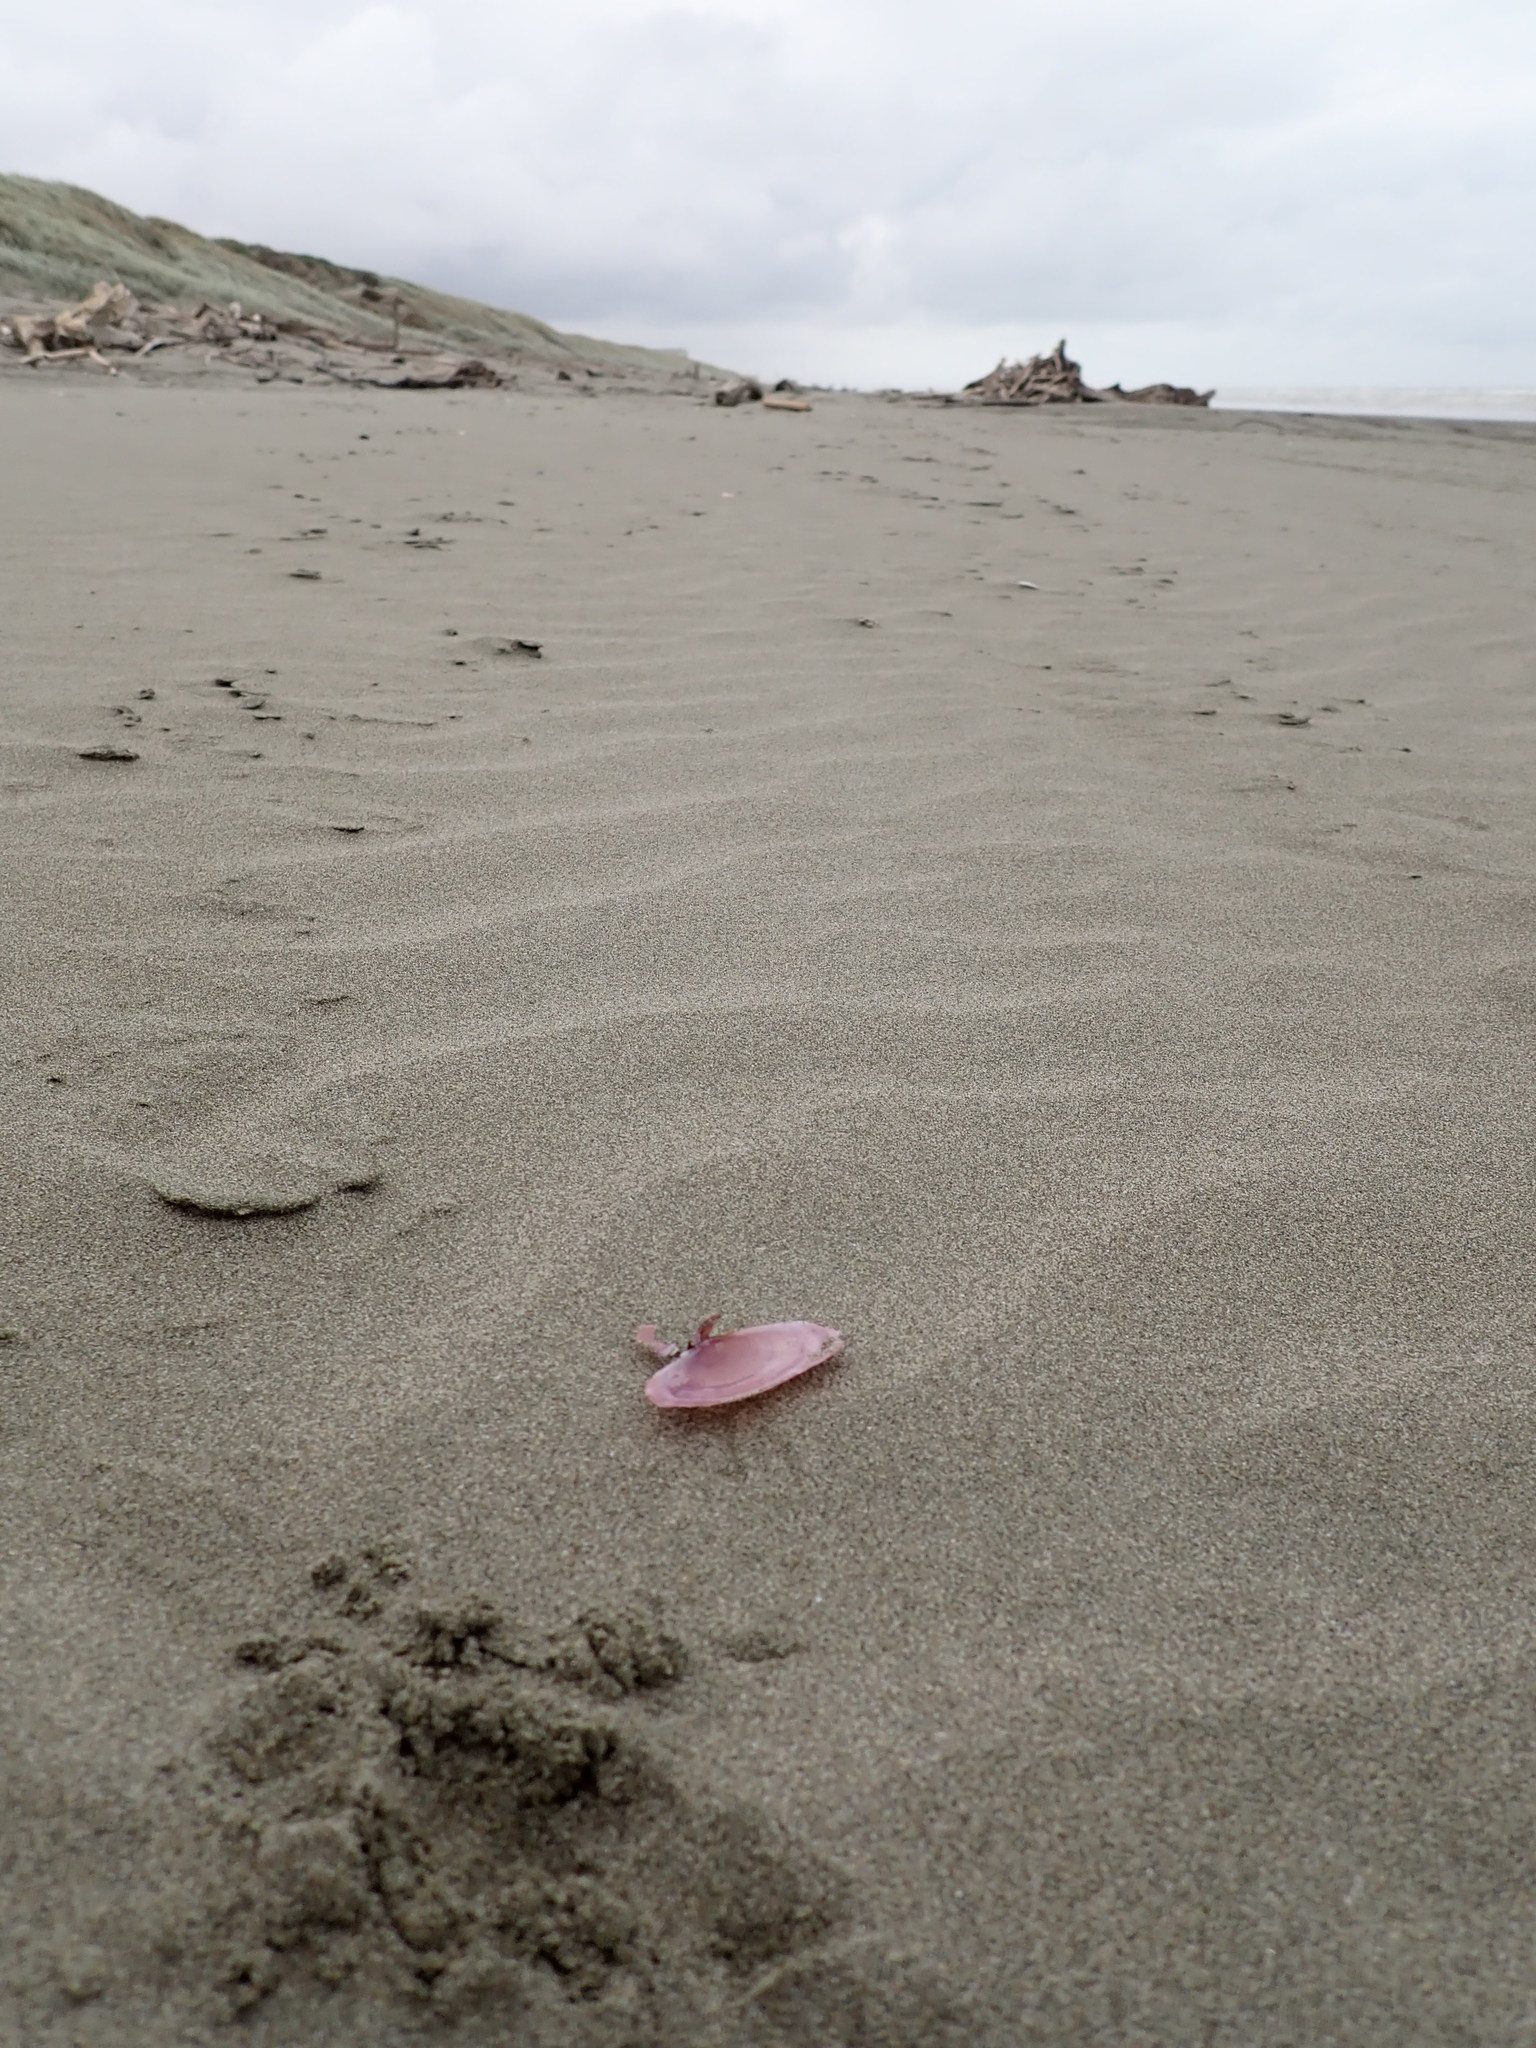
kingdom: Animalia
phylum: Mollusca
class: Bivalvia
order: Cardiida
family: Psammobiidae
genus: Gari
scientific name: Gari lineolata
